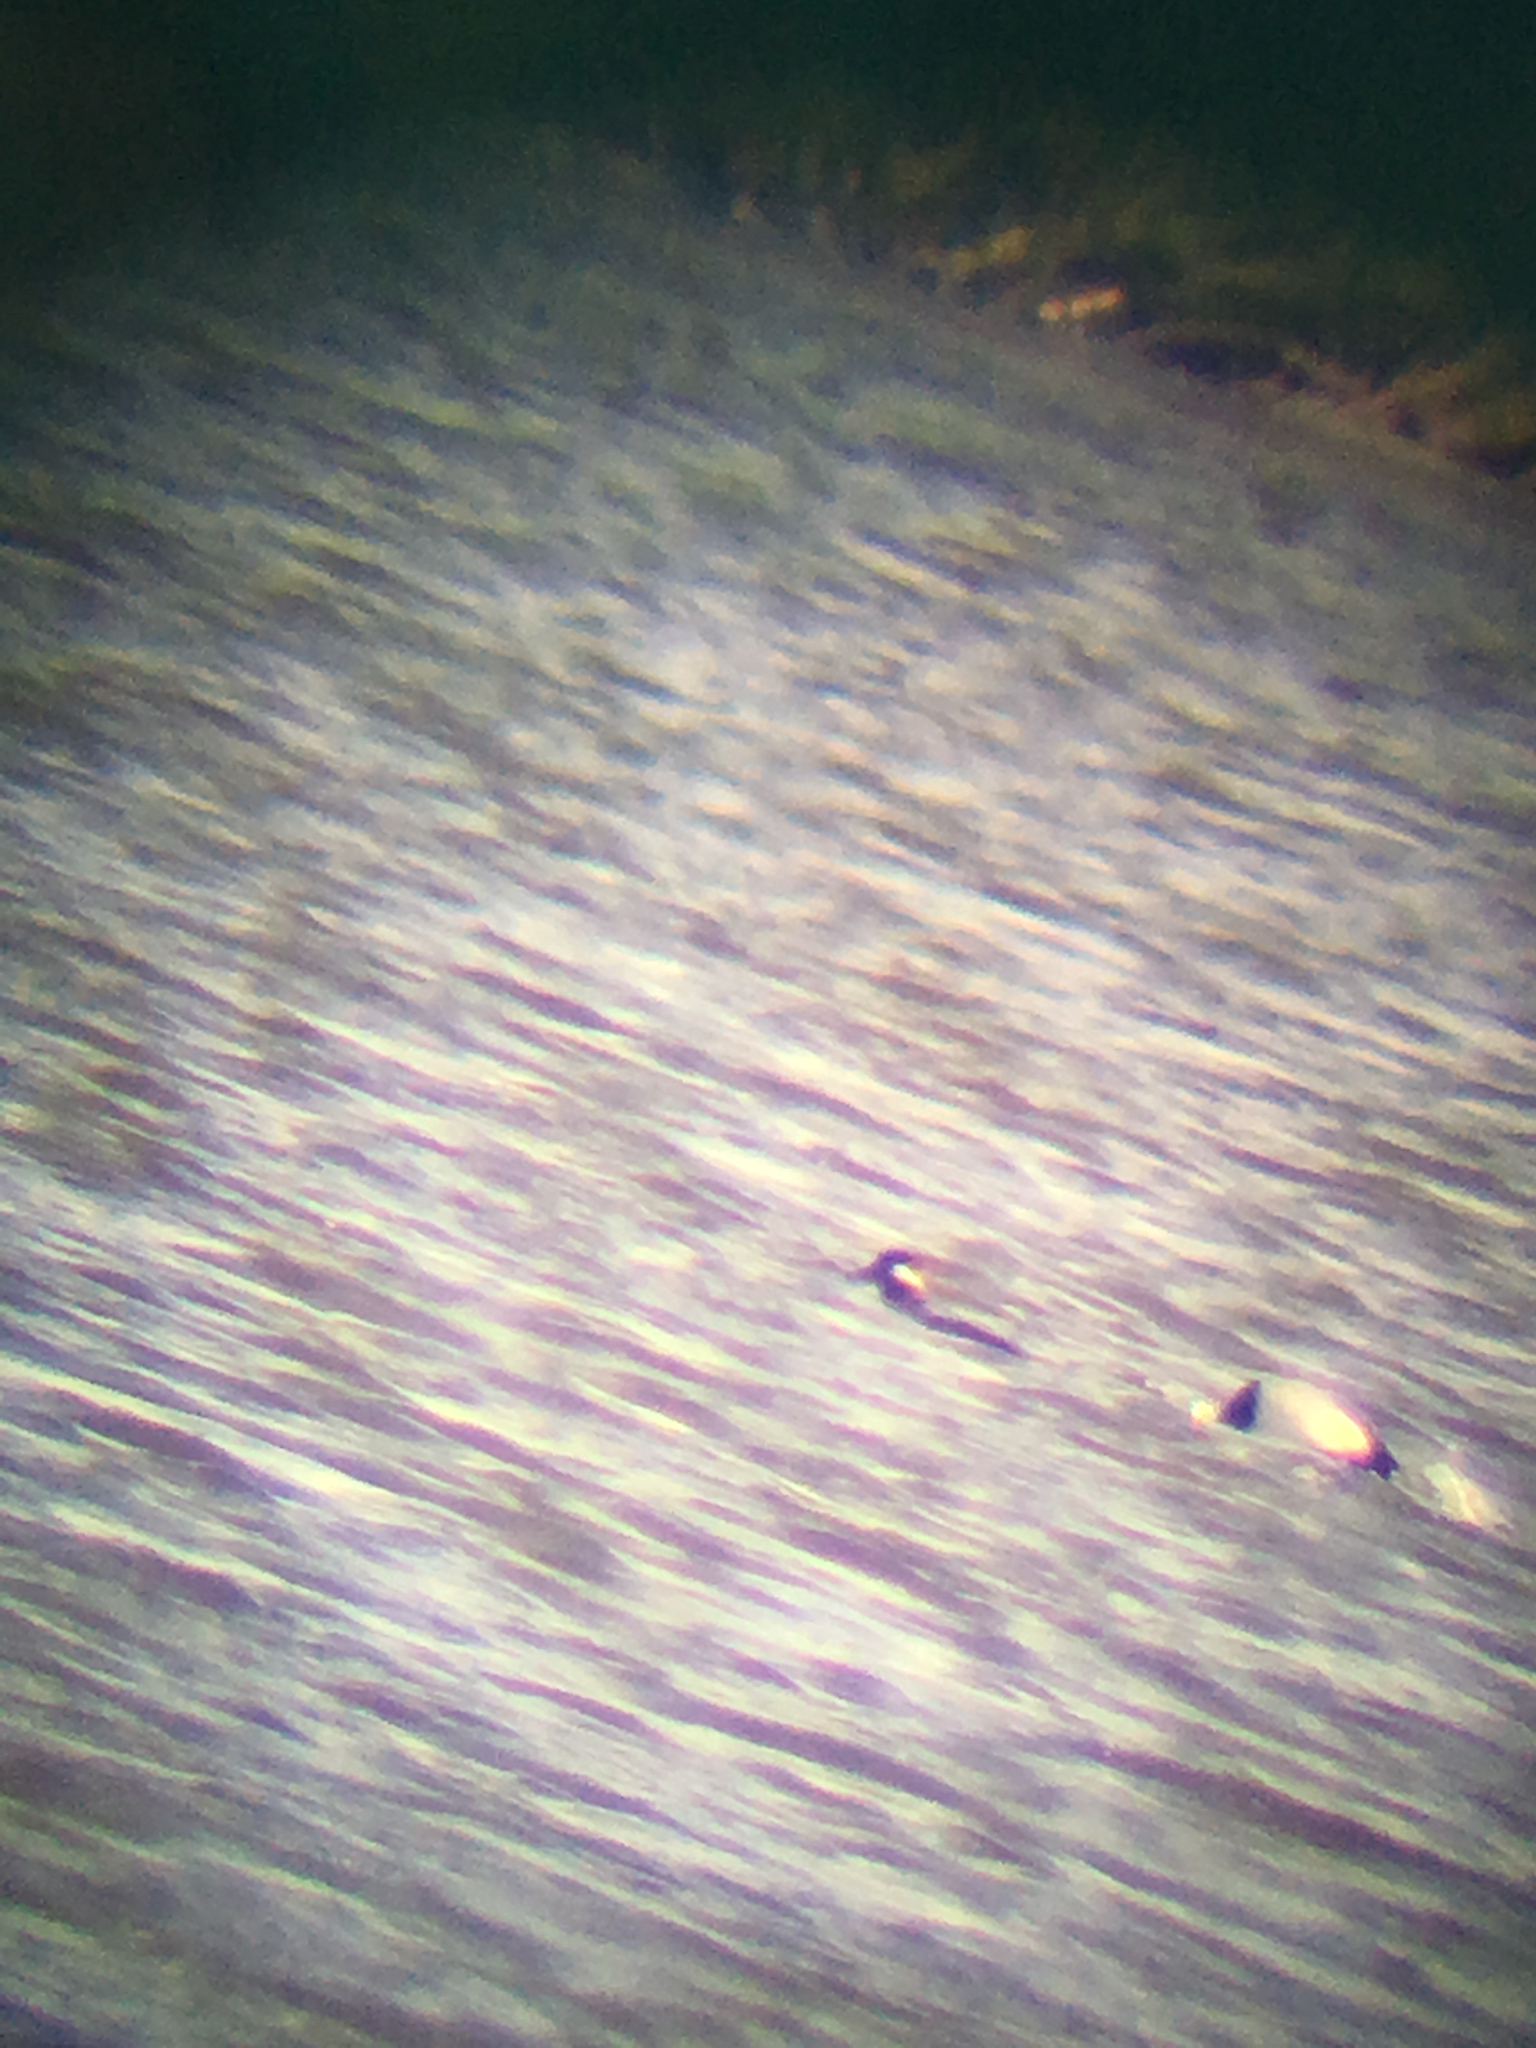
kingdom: Animalia
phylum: Chordata
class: Aves
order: Anseriformes
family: Anatidae
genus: Bucephala
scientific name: Bucephala albeola
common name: Bufflehead
